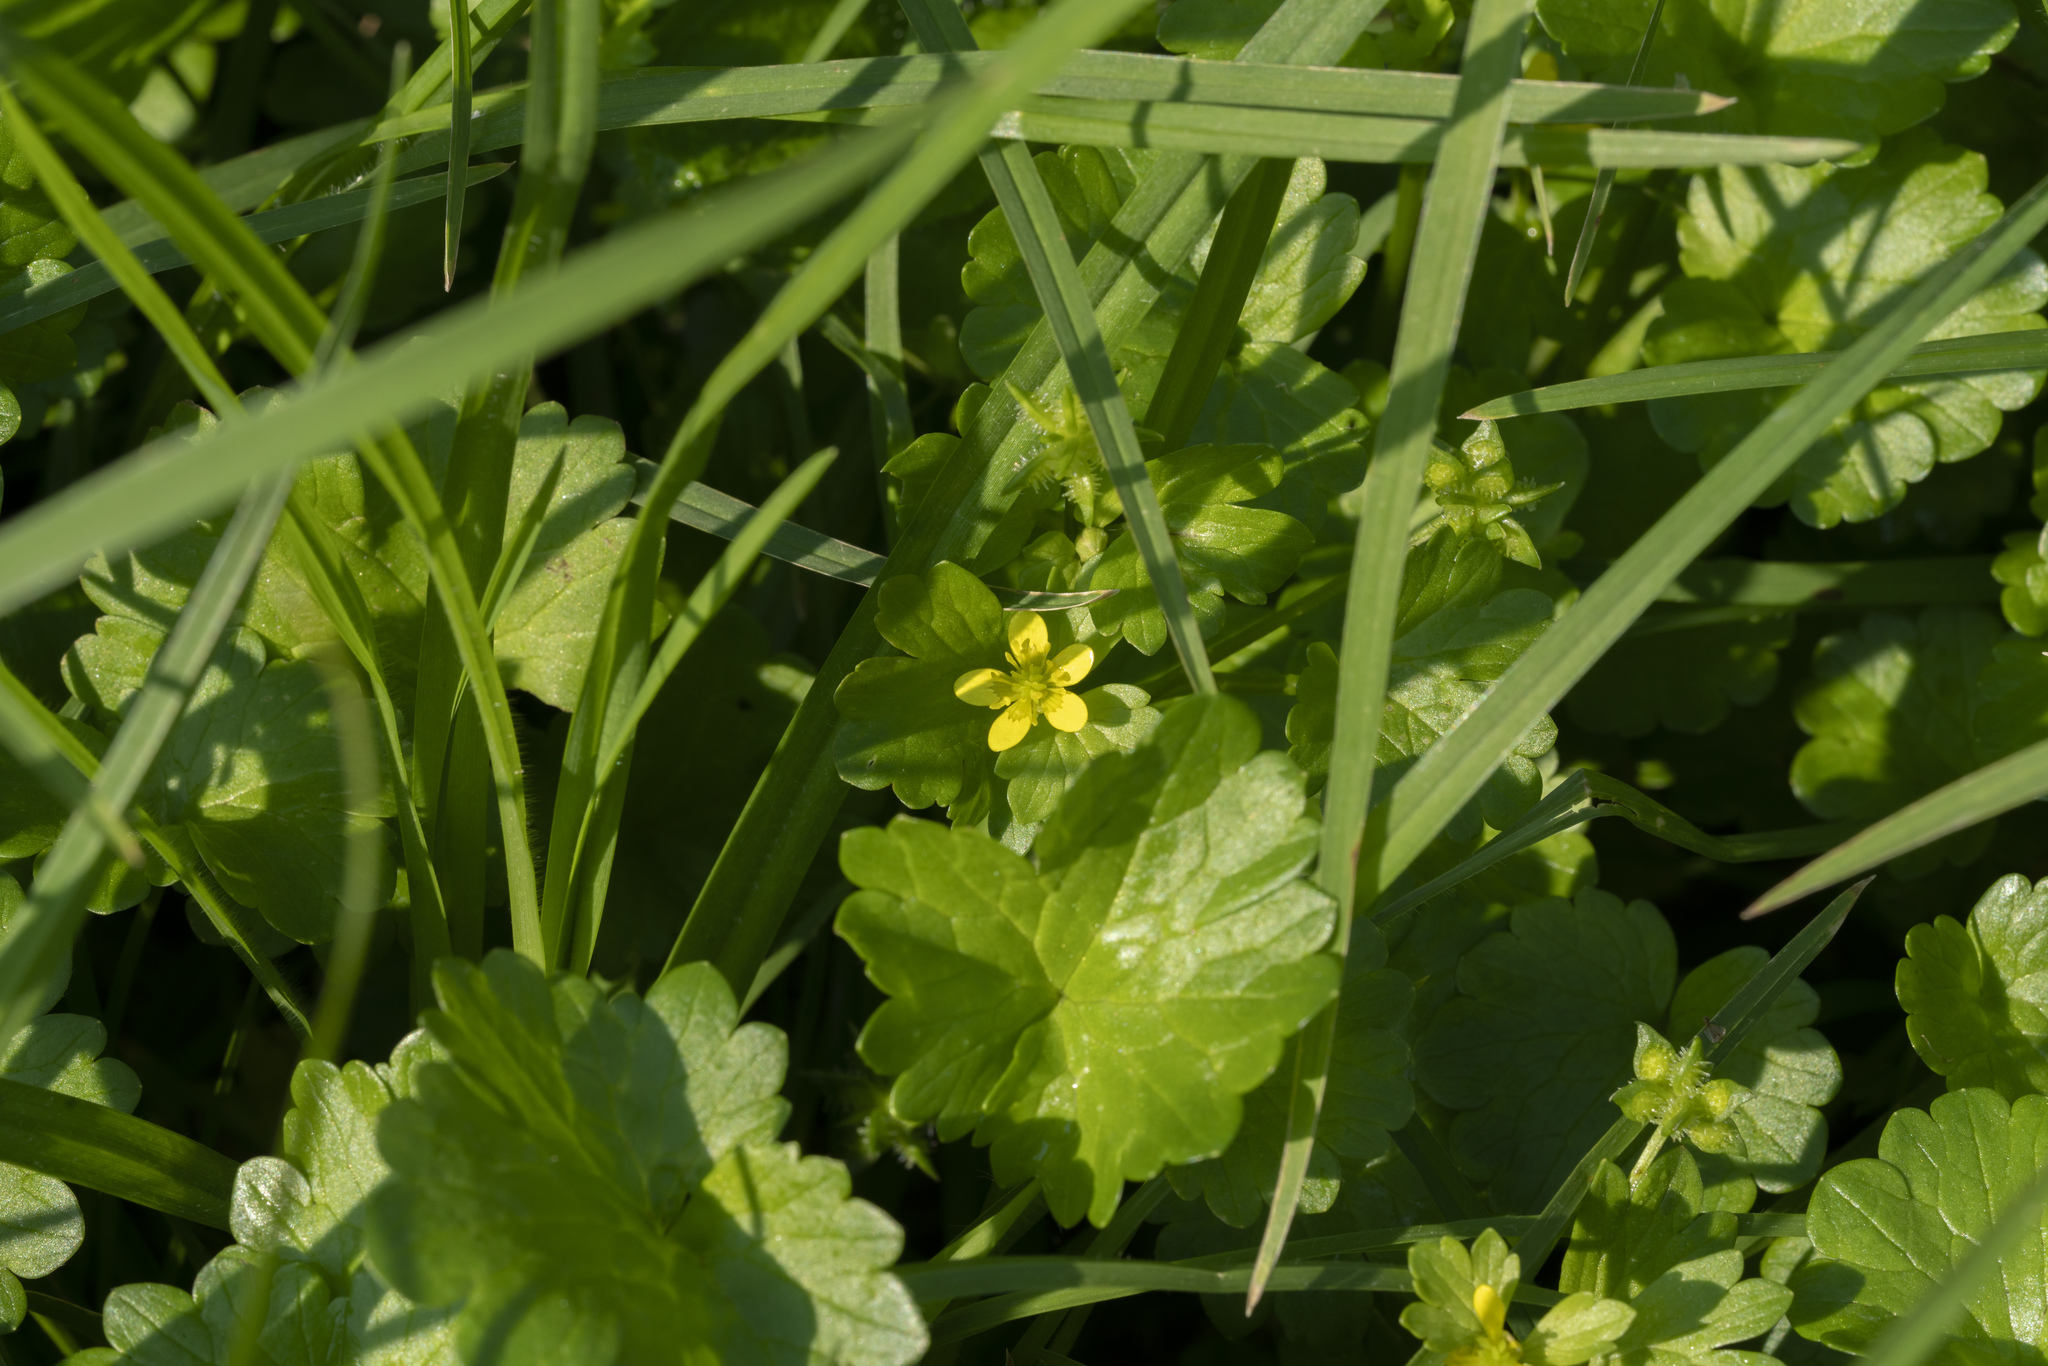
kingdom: Plantae
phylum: Tracheophyta
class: Magnoliopsida
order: Ranunculales
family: Ranunculaceae
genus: Ranunculus
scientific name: Ranunculus muricatus
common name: Rough-fruited buttercup
